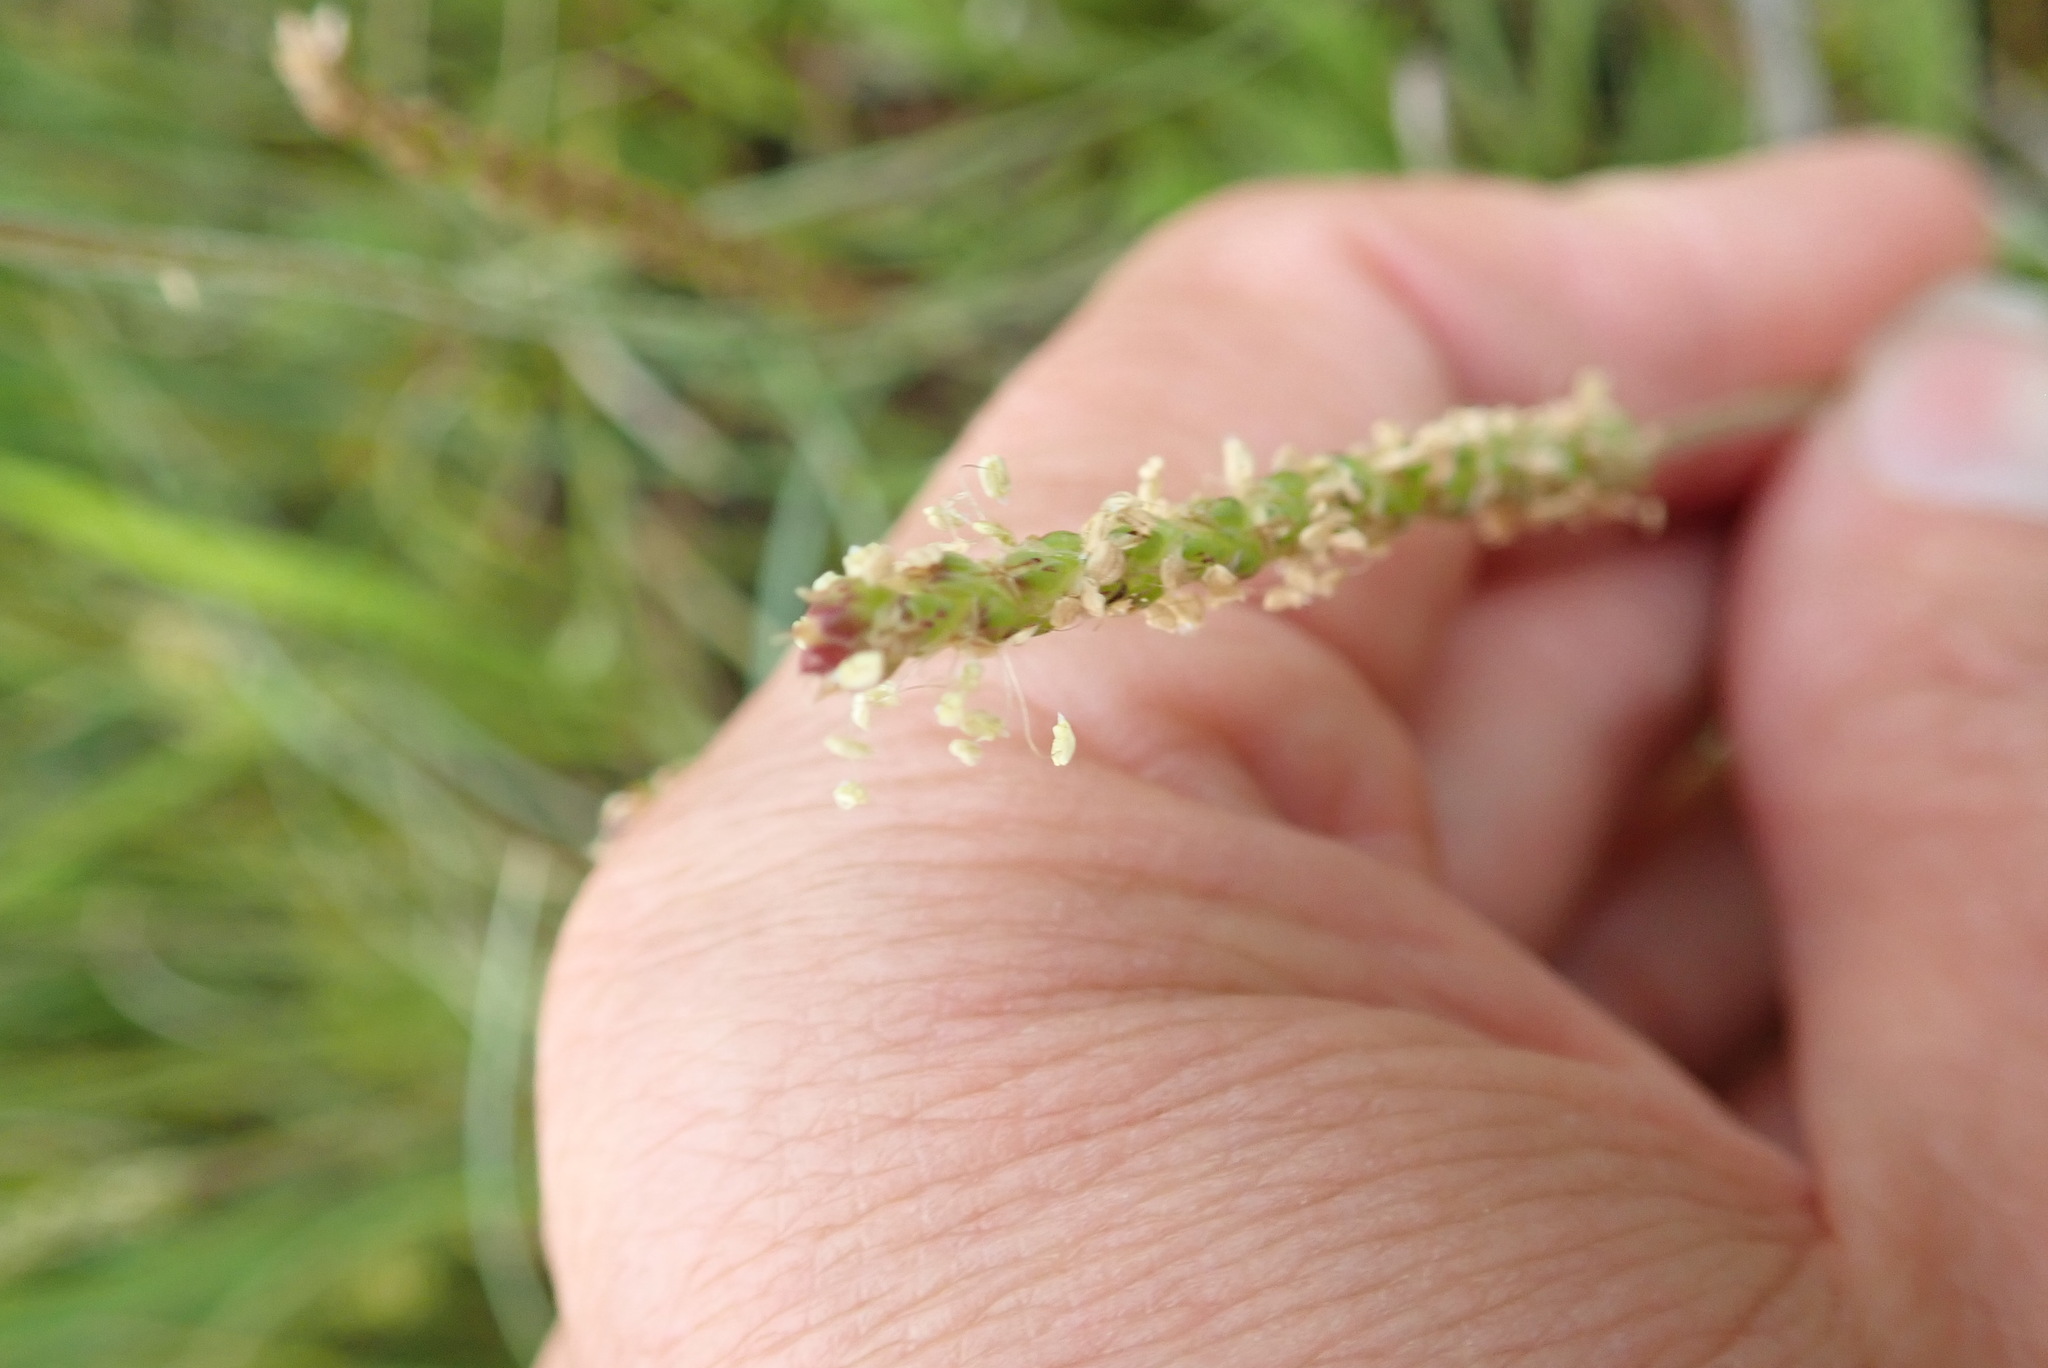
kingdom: Plantae
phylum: Tracheophyta
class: Magnoliopsida
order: Lamiales
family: Plantaginaceae
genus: Plantago
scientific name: Plantago coronopus
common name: Buck's-horn plantain
